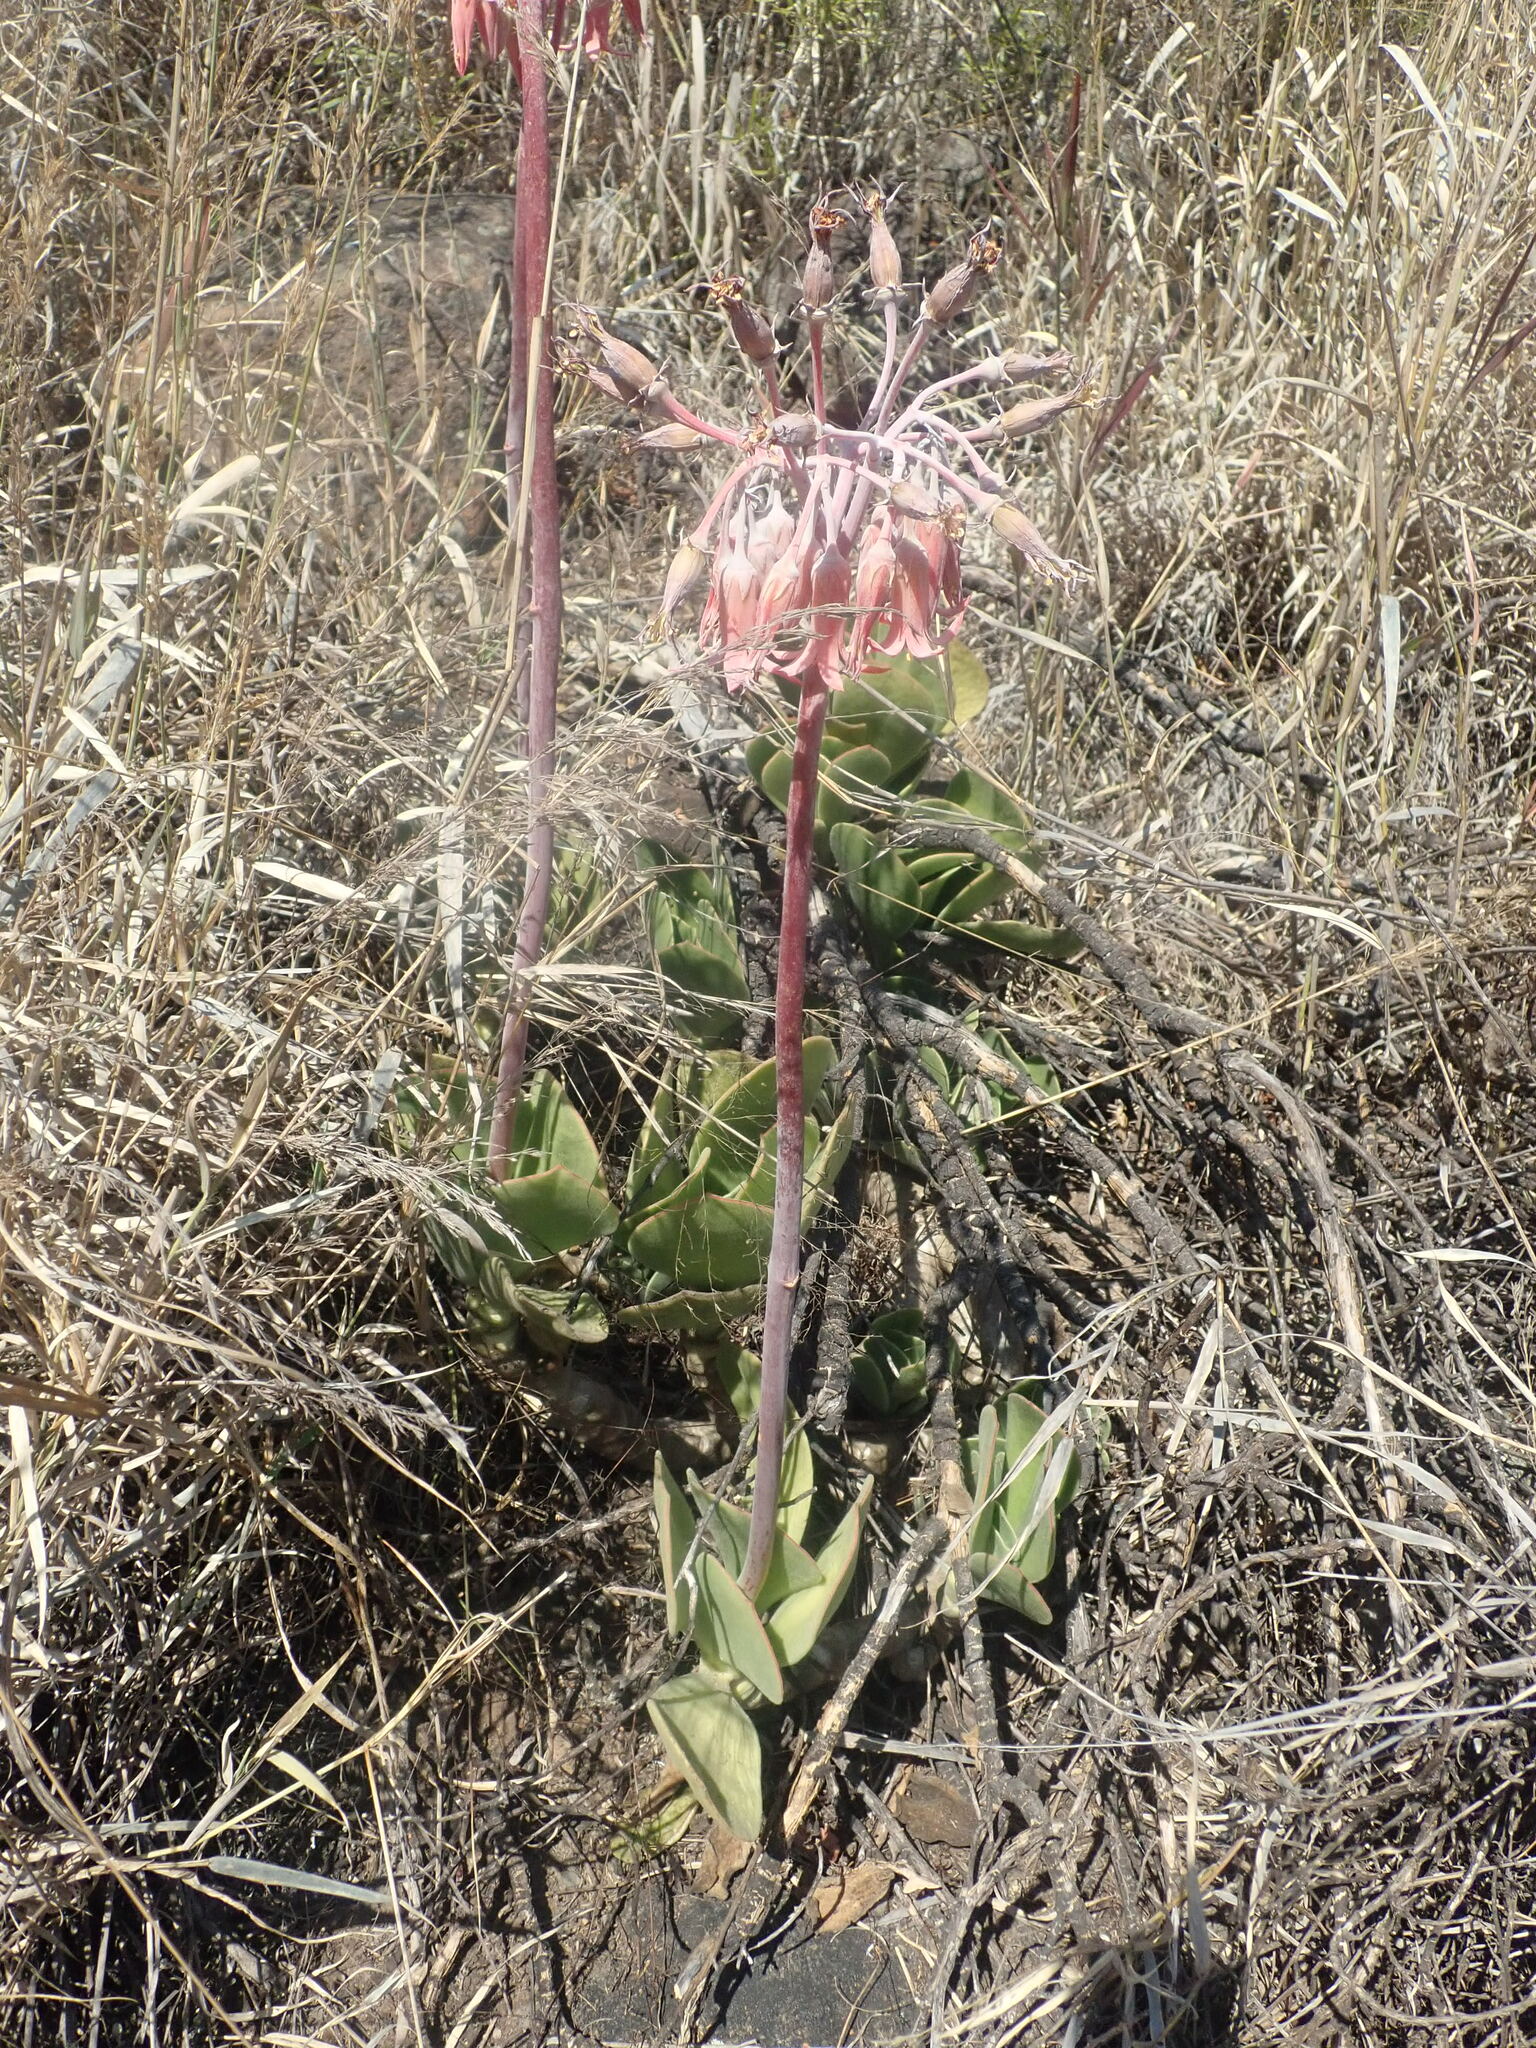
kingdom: Plantae
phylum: Tracheophyta
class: Magnoliopsida
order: Saxifragales
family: Crassulaceae
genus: Cotyledon
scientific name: Cotyledon orbiculata
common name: Pig's ear
